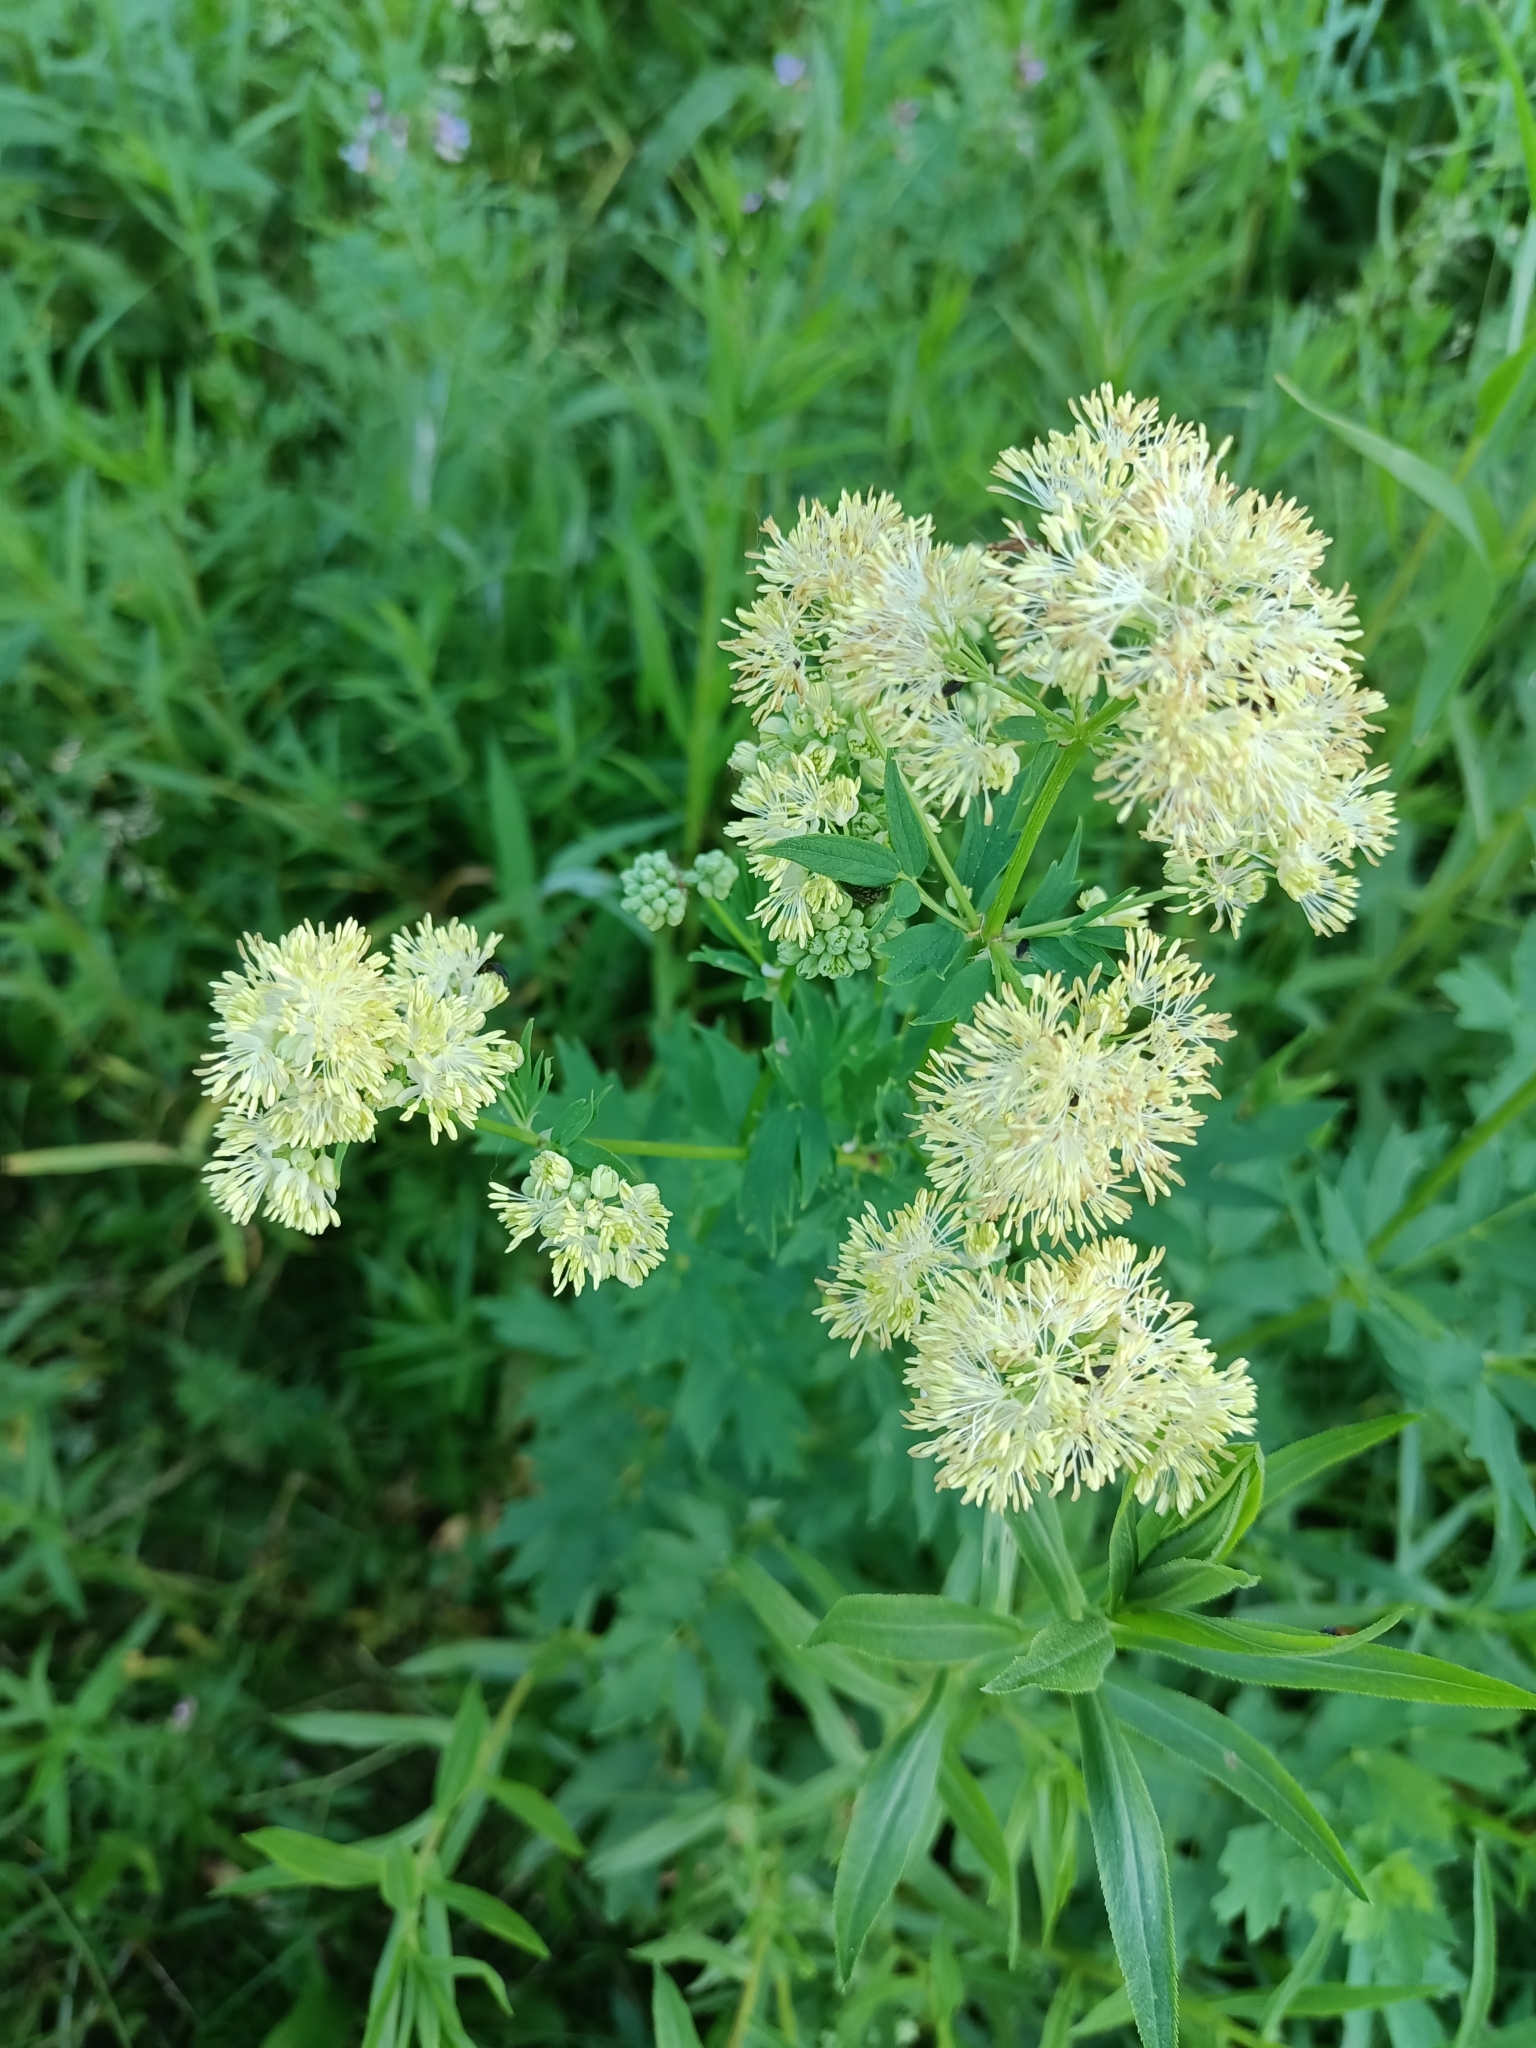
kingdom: Plantae
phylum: Tracheophyta
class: Magnoliopsida
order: Ranunculales
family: Ranunculaceae
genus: Thalictrum
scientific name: Thalictrum flavum
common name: Common meadow-rue
